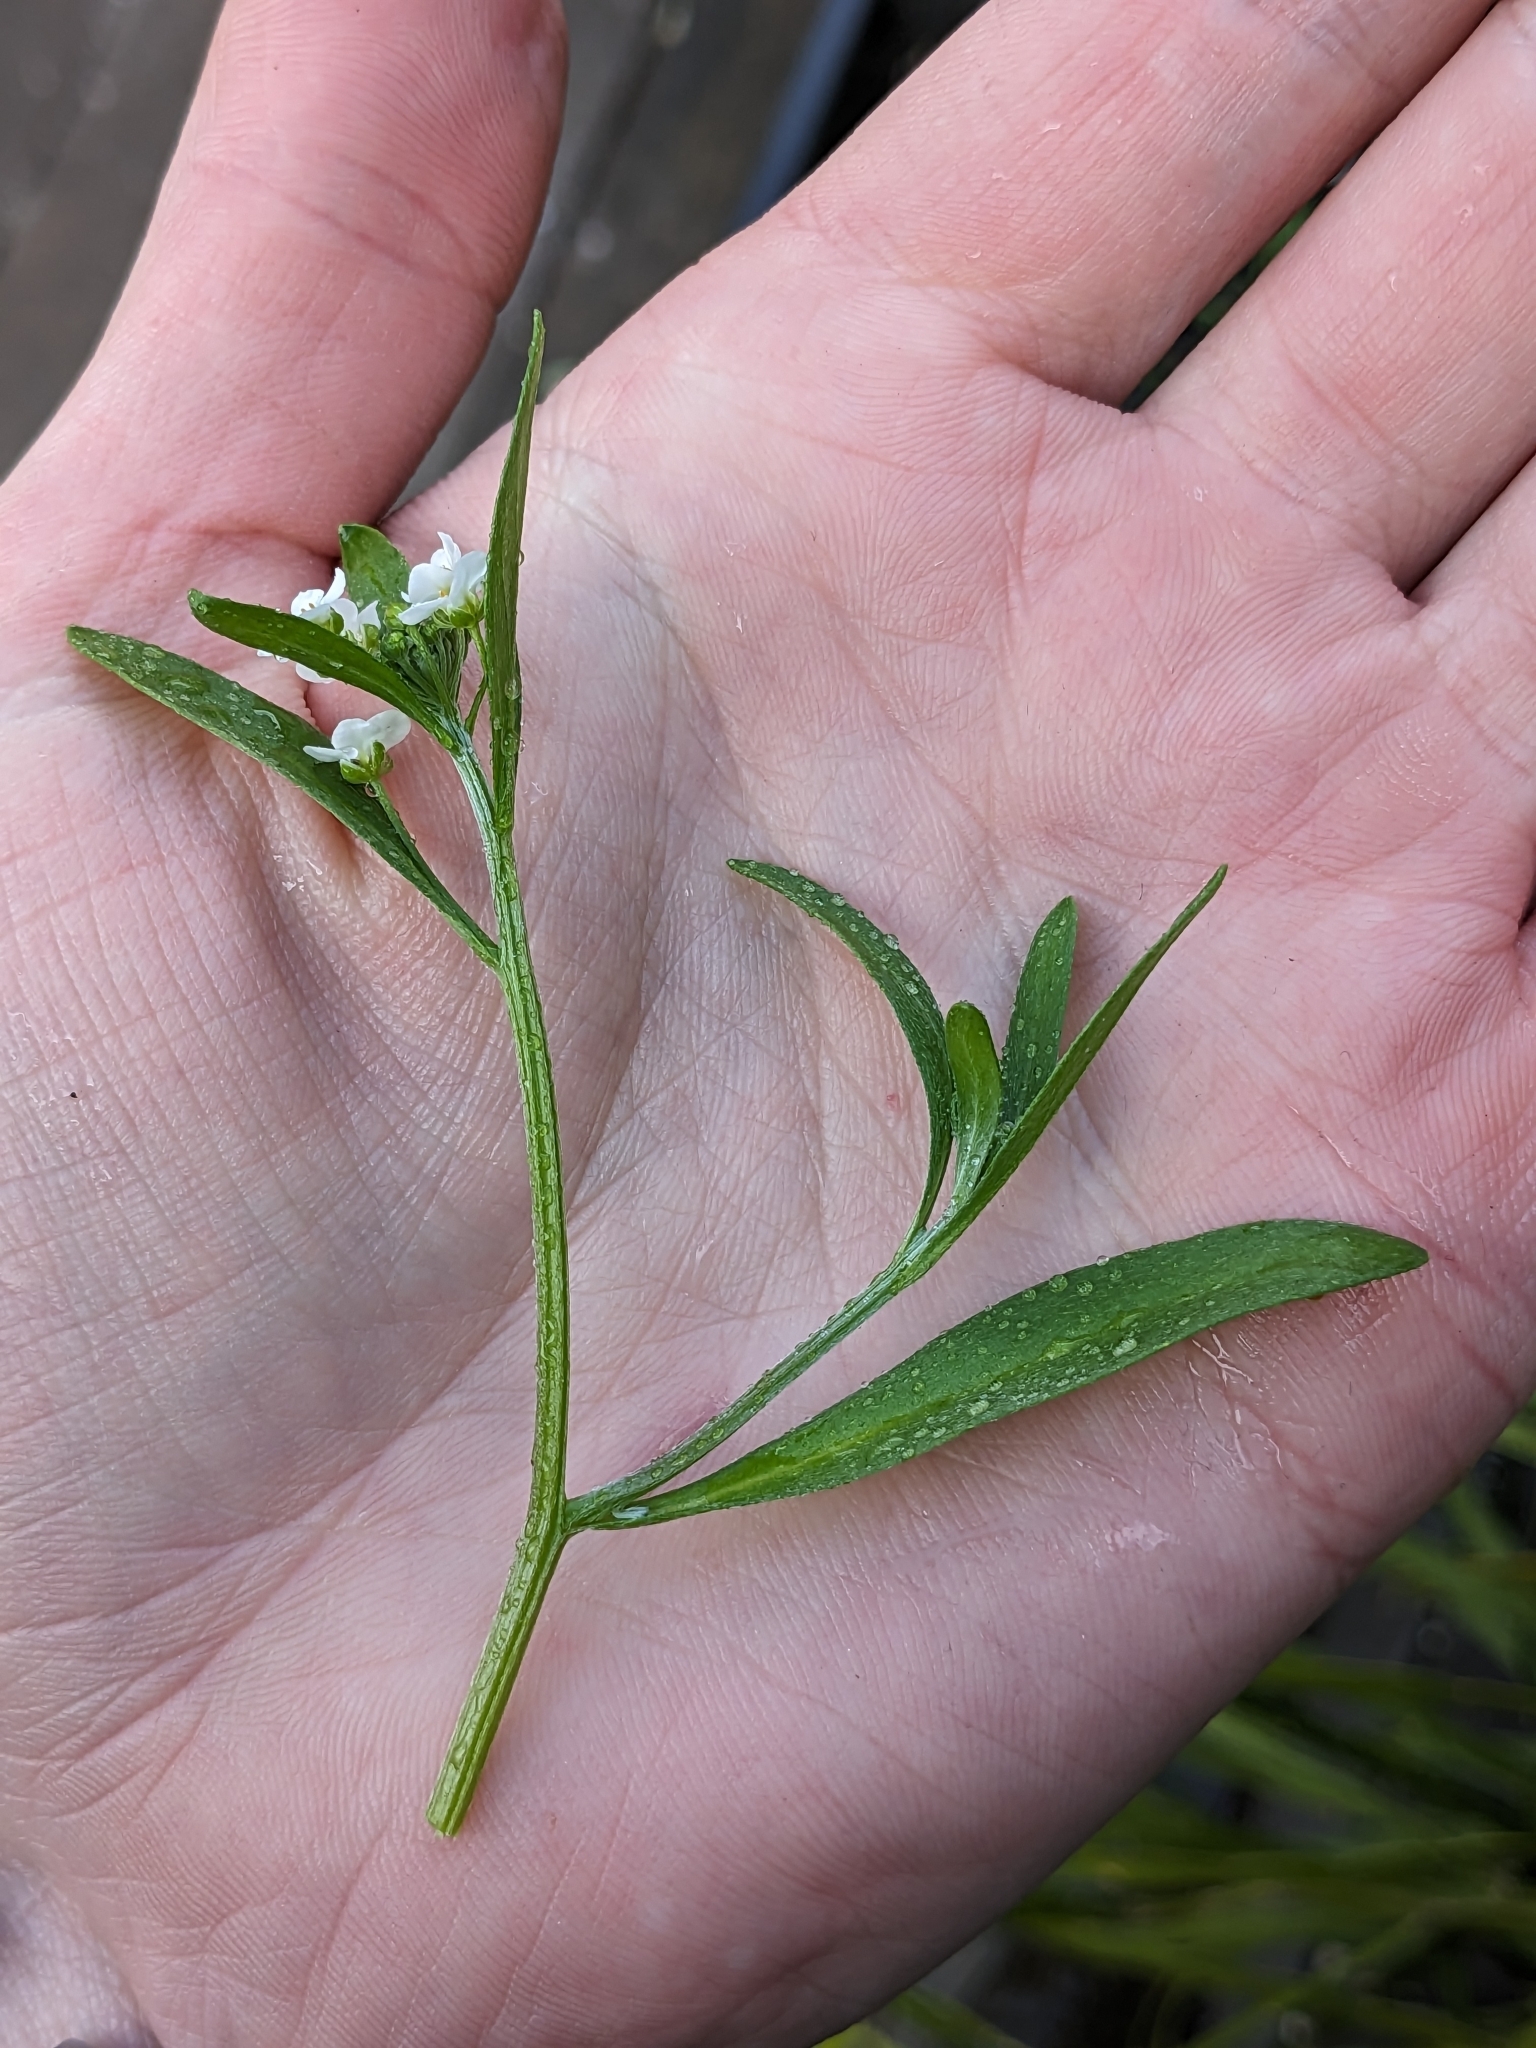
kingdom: Plantae
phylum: Tracheophyta
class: Magnoliopsida
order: Brassicales
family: Brassicaceae
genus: Lobularia
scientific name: Lobularia maritima
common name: Sweet alison
